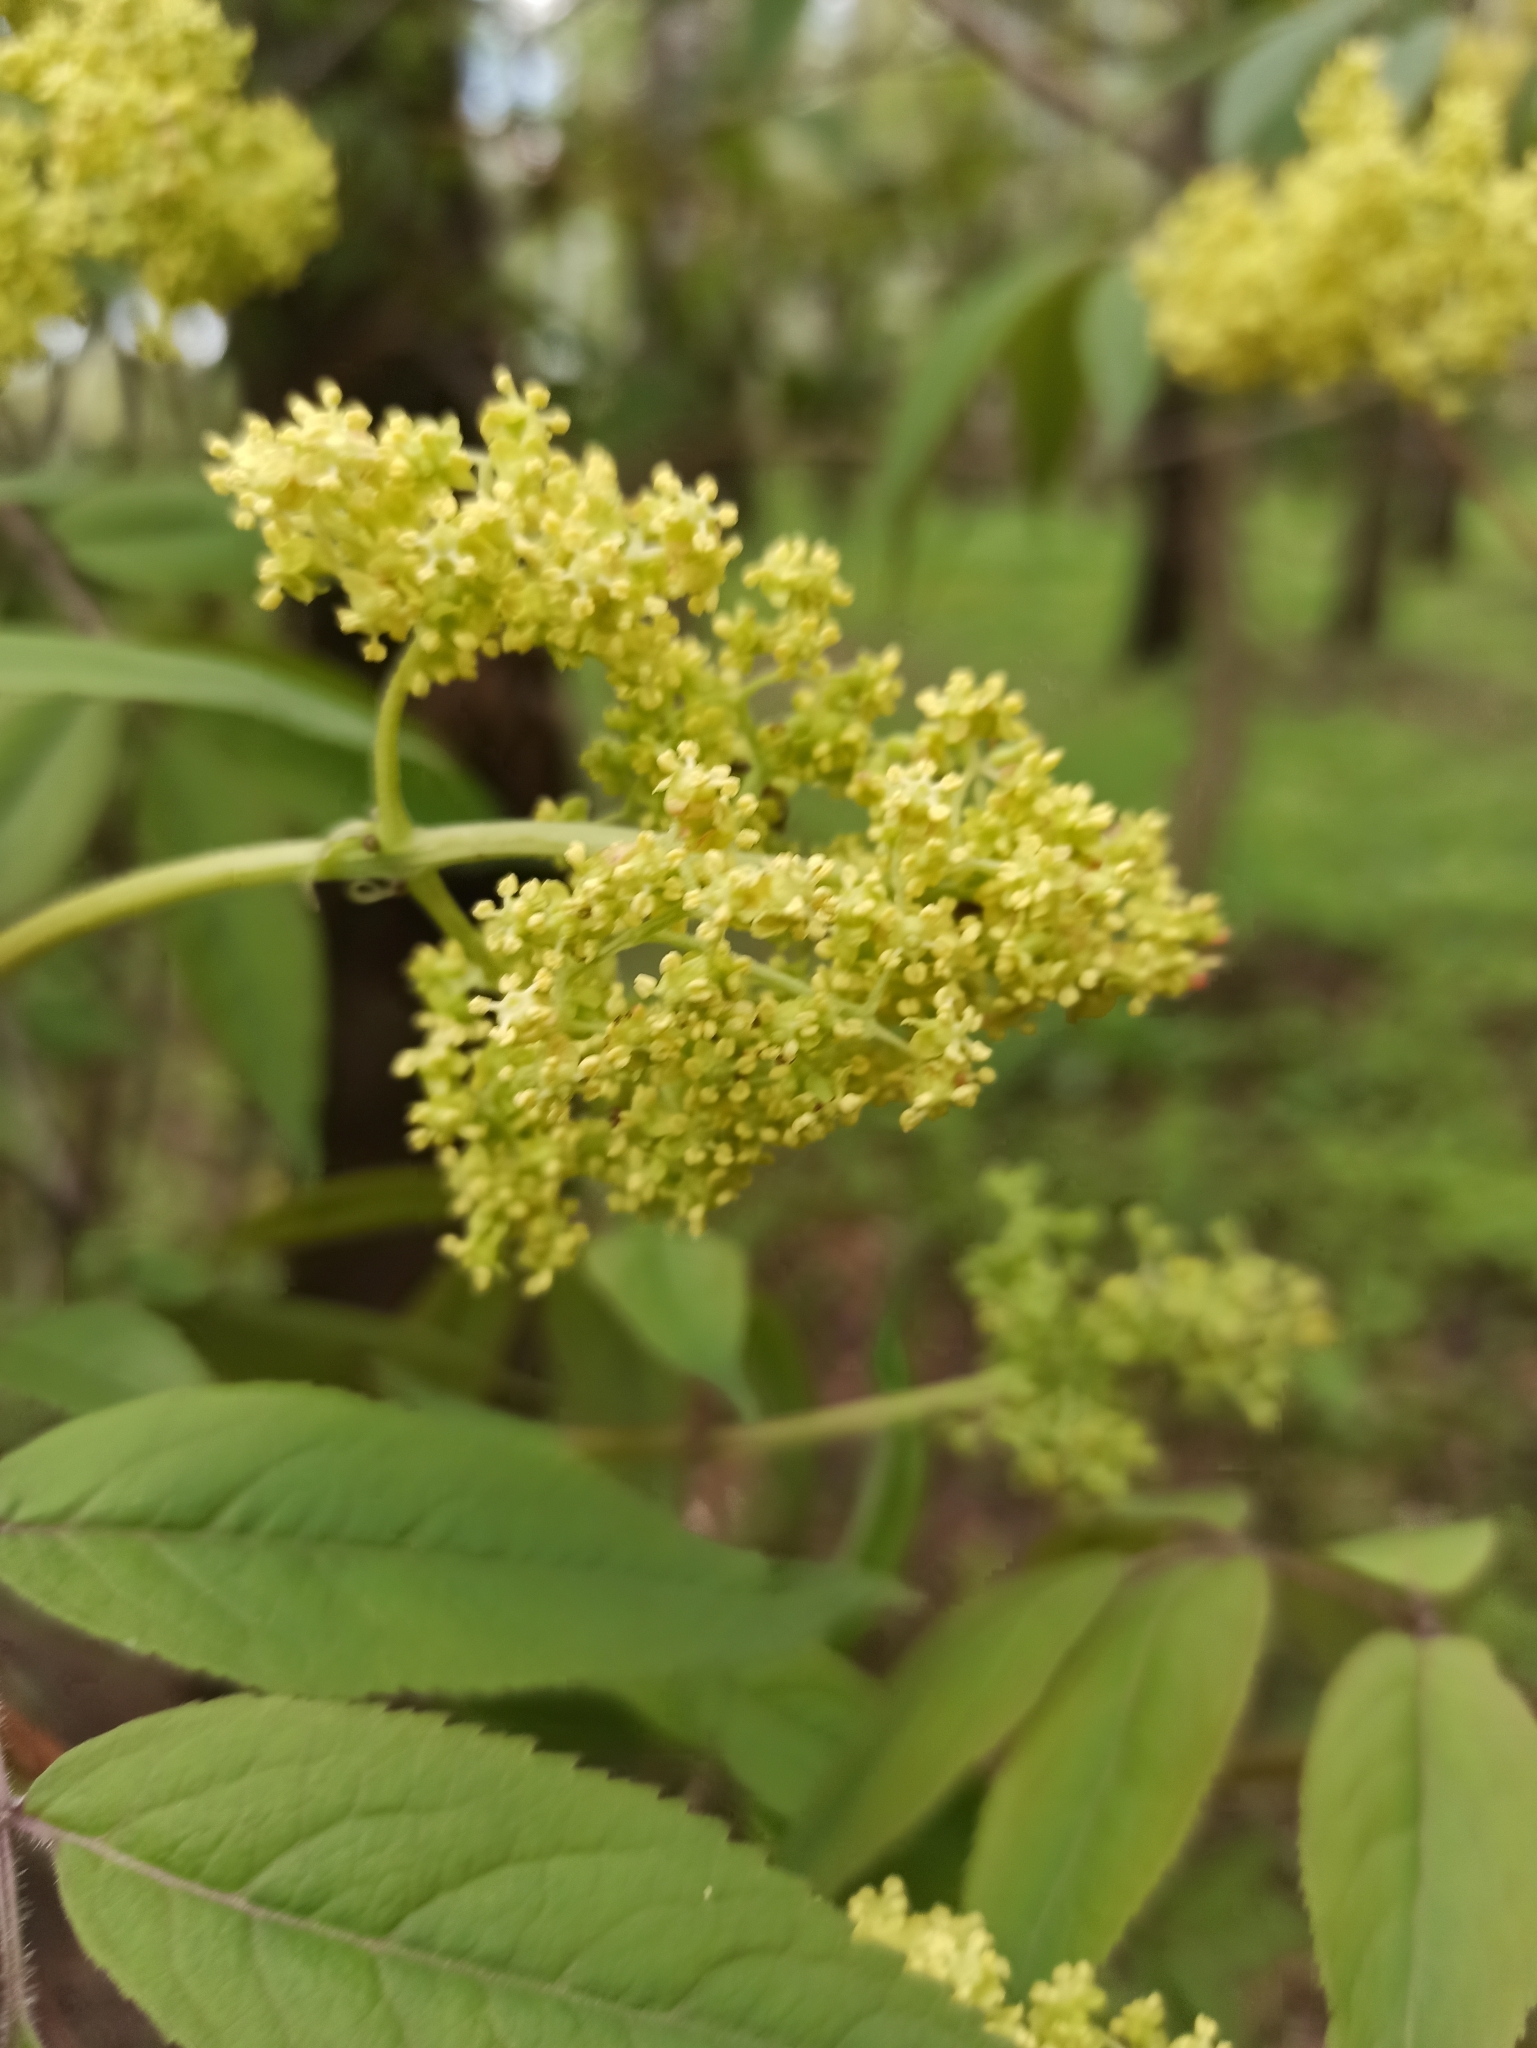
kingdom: Plantae
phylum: Tracheophyta
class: Magnoliopsida
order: Dipsacales
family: Viburnaceae
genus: Sambucus
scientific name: Sambucus racemosa
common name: Red-berried elder
